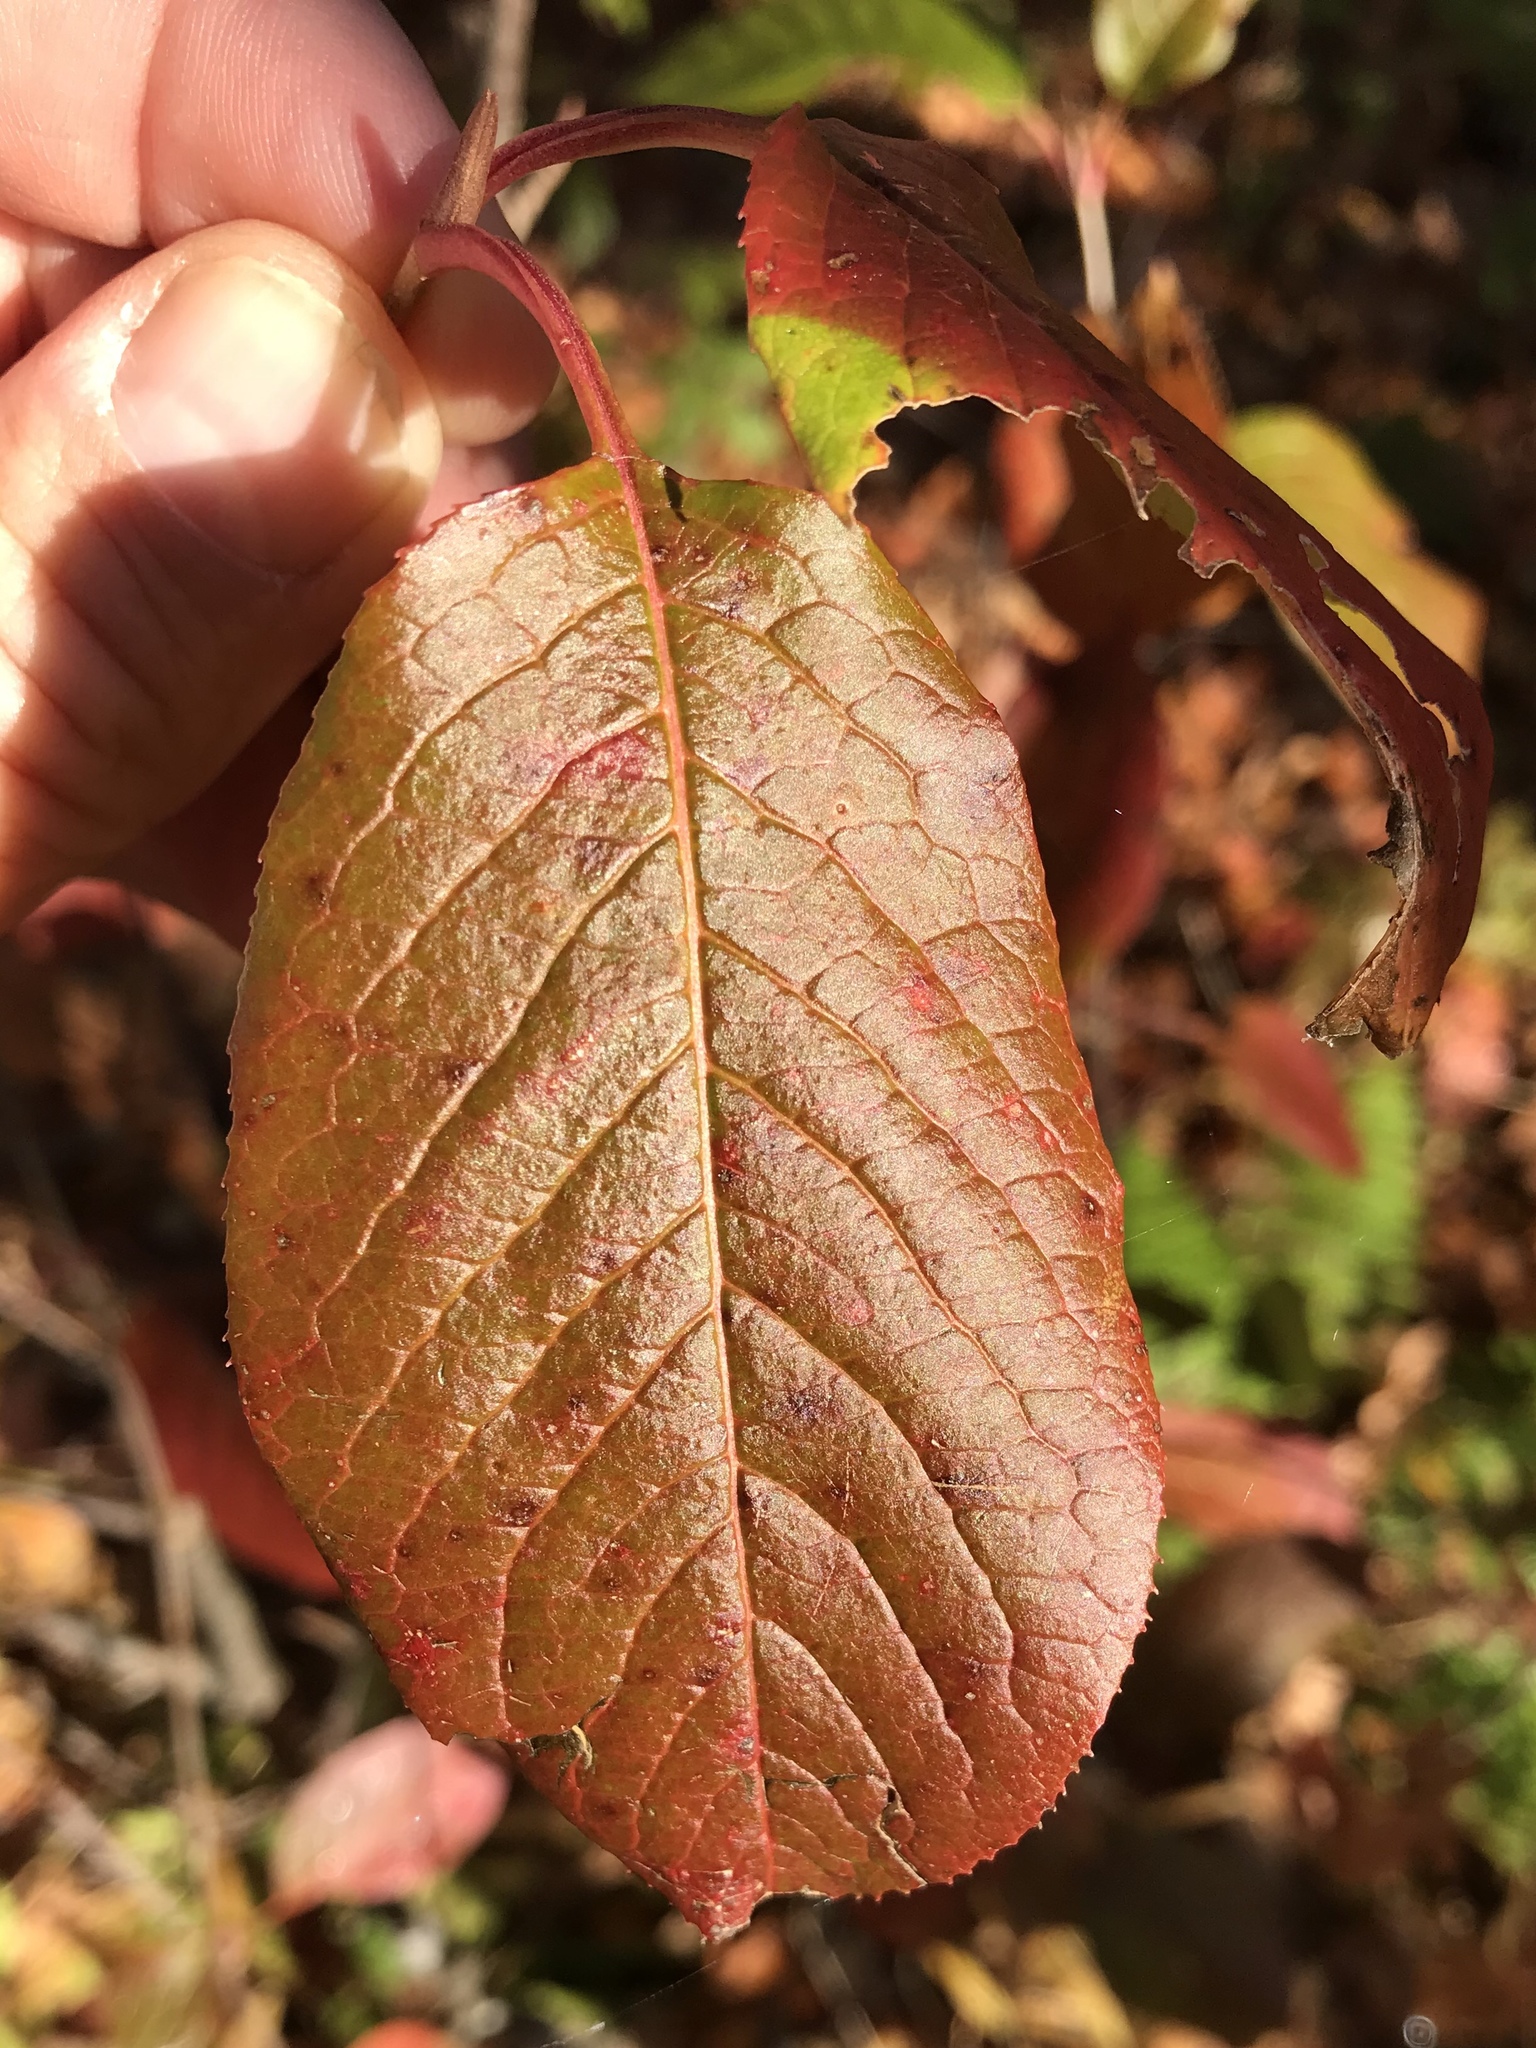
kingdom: Plantae
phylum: Tracheophyta
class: Magnoliopsida
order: Dipsacales
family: Viburnaceae
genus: Viburnum
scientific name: Viburnum lentago
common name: Black haw
